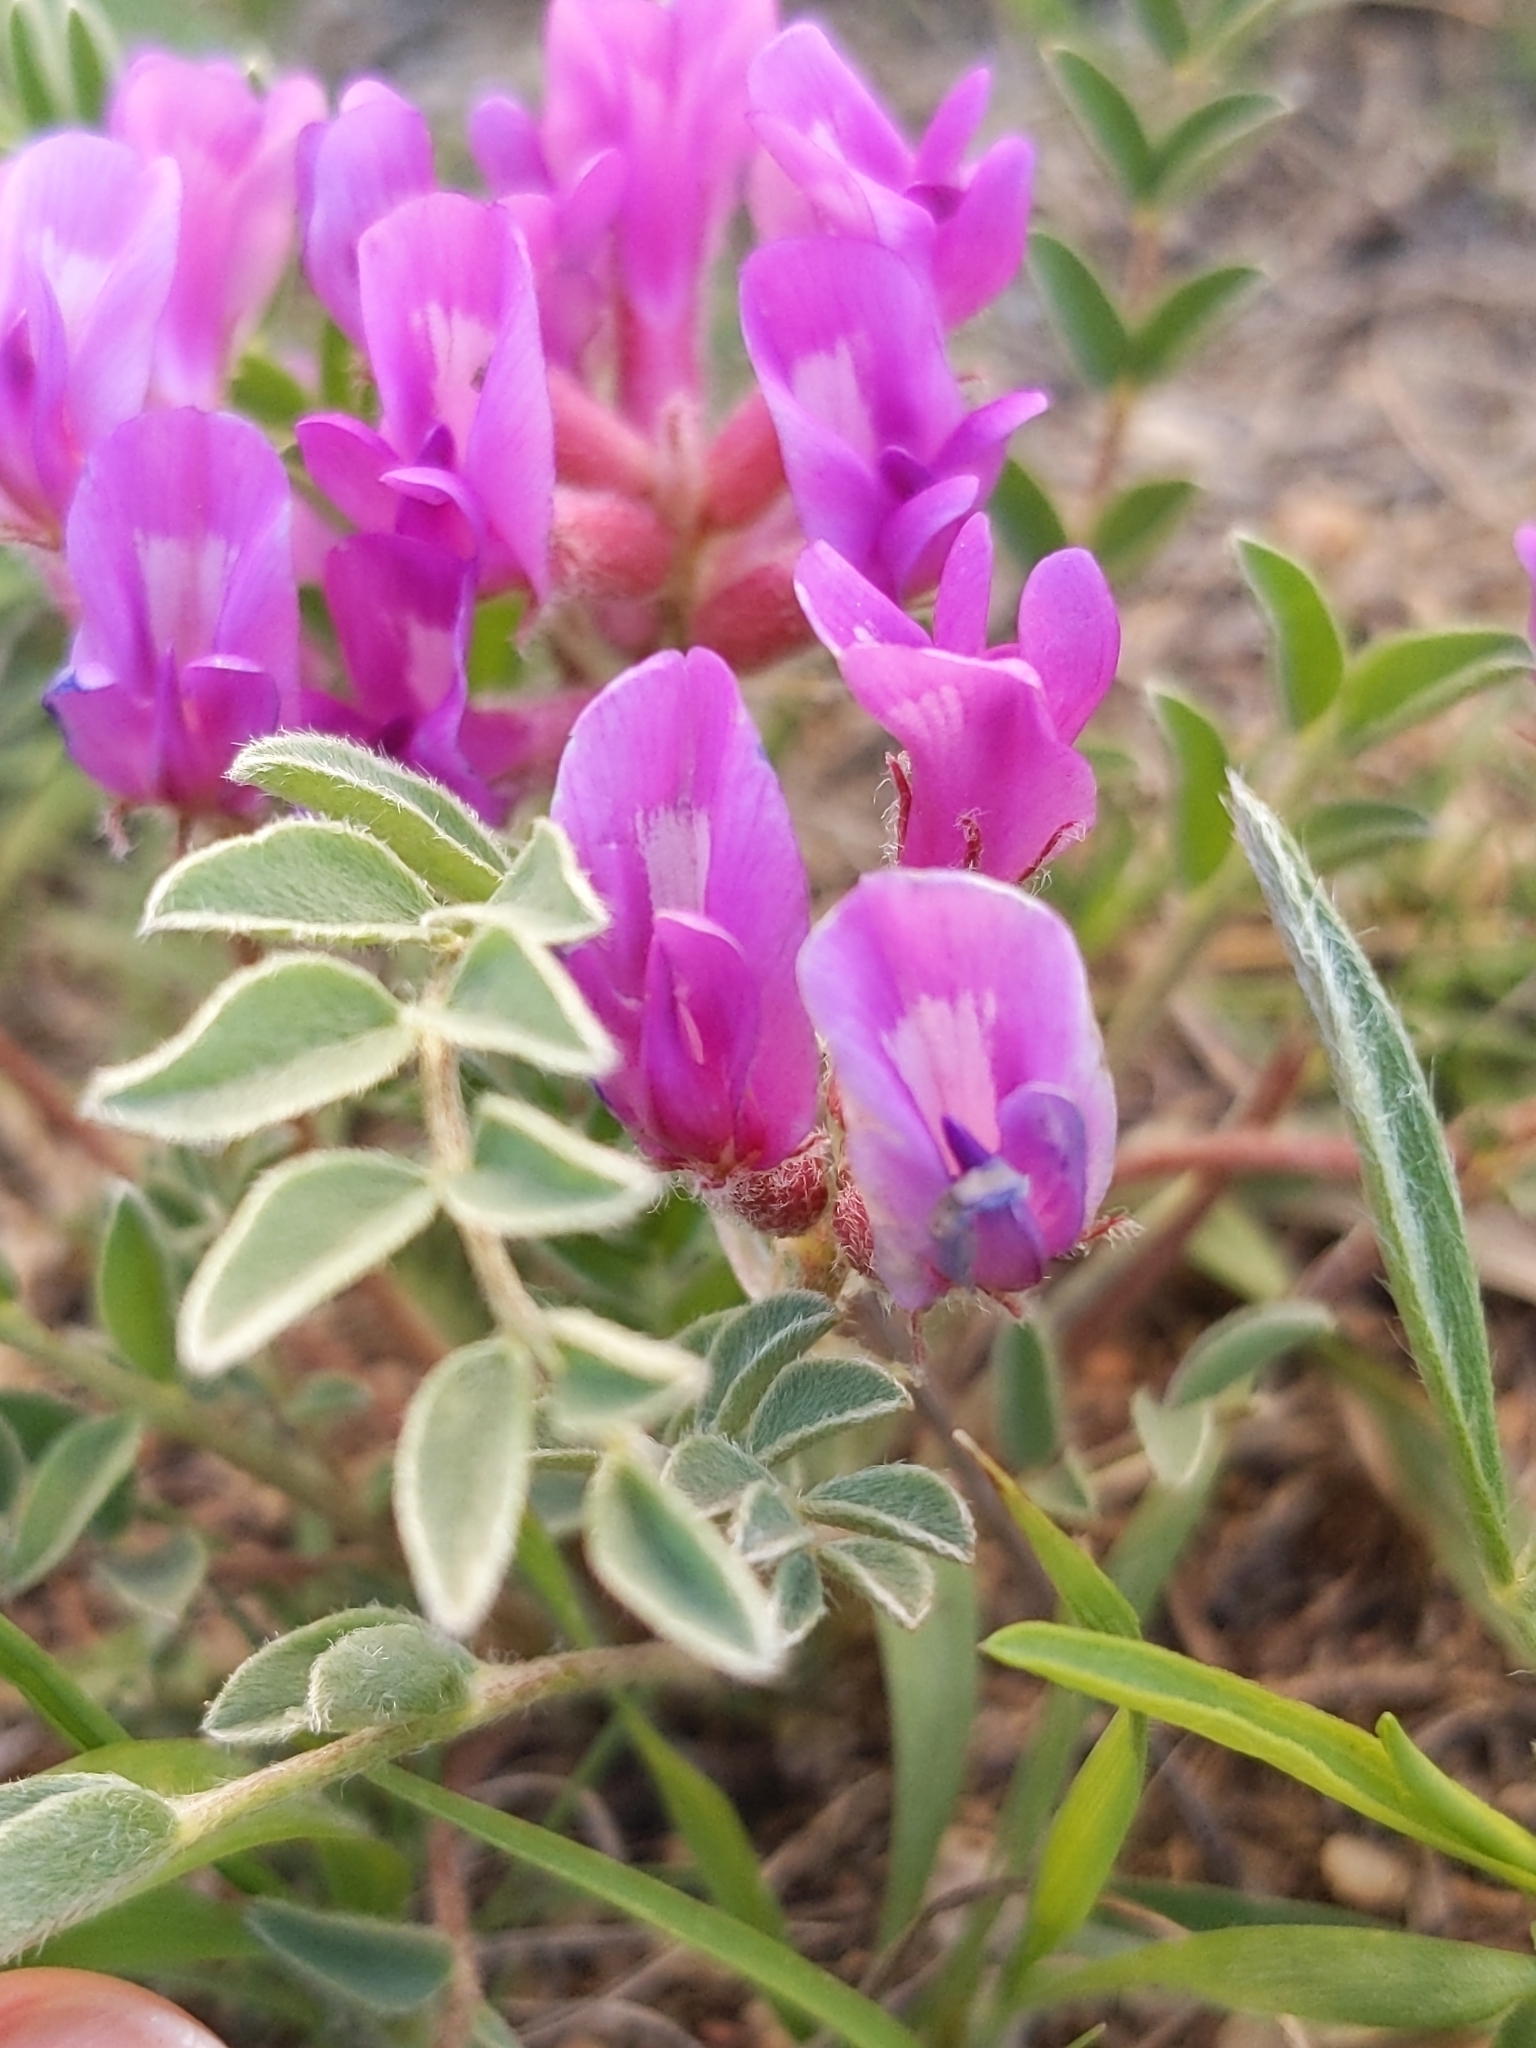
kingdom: Plantae
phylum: Tracheophyta
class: Magnoliopsida
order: Fabales
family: Fabaceae
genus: Astragalus
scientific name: Astragalus shortianus
